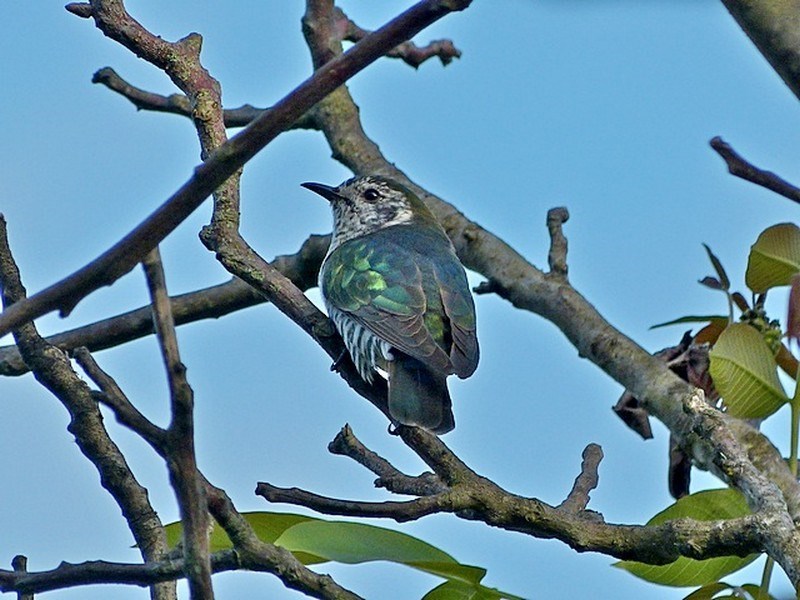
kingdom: Animalia
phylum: Chordata
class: Aves
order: Cuculiformes
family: Cuculidae
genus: Chrysococcyx
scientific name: Chrysococcyx lucidus
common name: Shining bronze cuckoo
